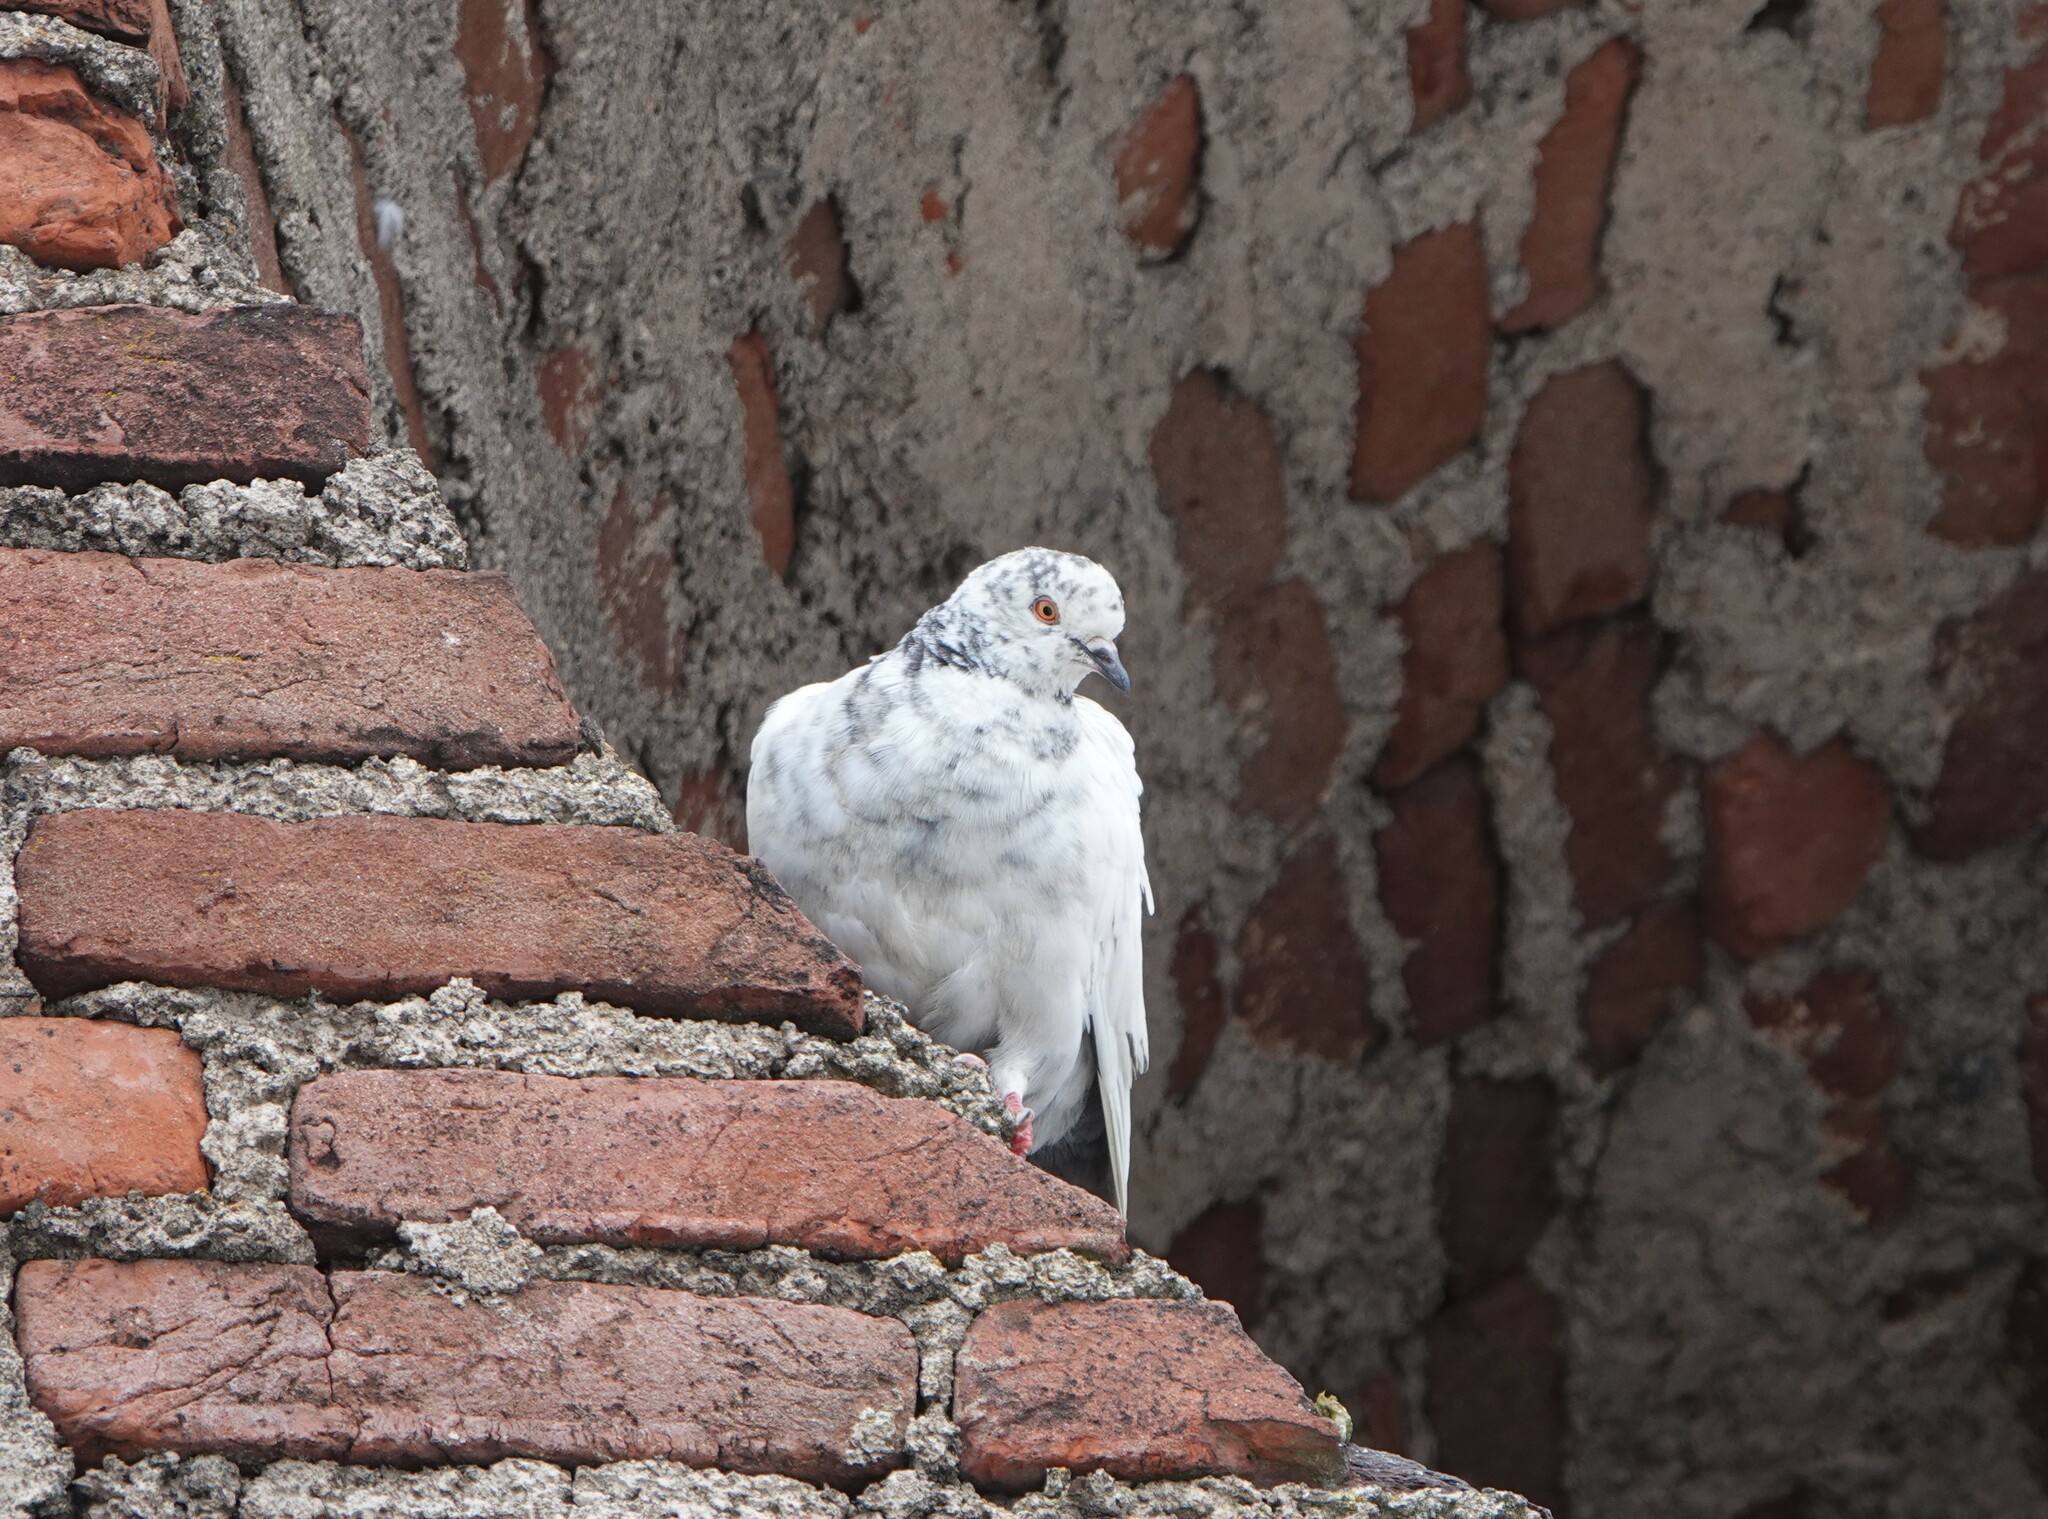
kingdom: Animalia
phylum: Chordata
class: Aves
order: Columbiformes
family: Columbidae
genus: Columba
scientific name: Columba livia
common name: Rock pigeon
